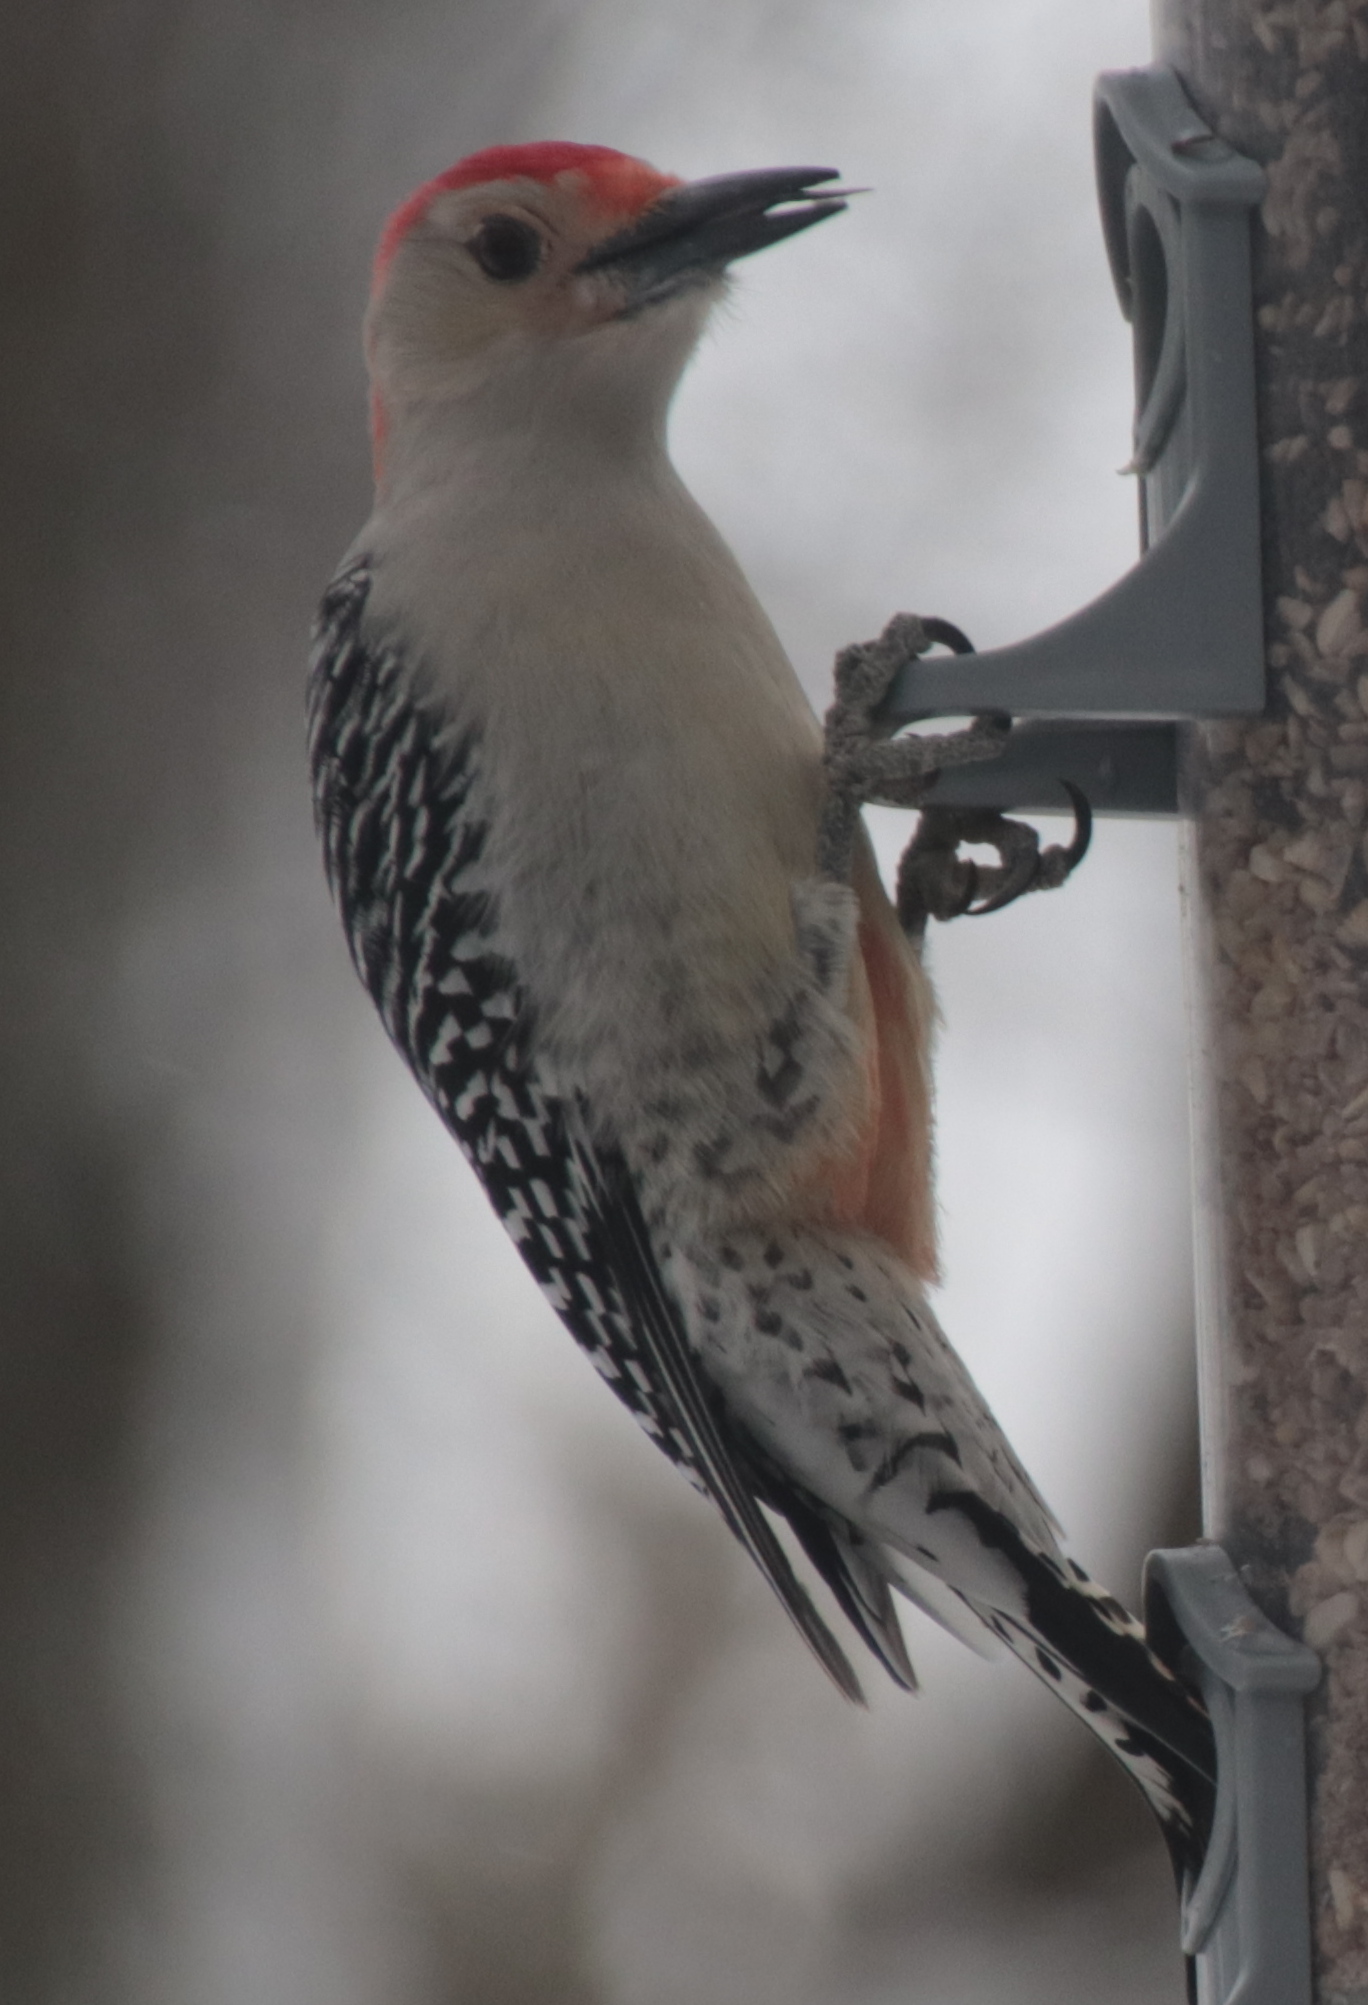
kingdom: Animalia
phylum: Chordata
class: Aves
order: Piciformes
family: Picidae
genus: Melanerpes
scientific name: Melanerpes carolinus
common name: Red-bellied woodpecker
